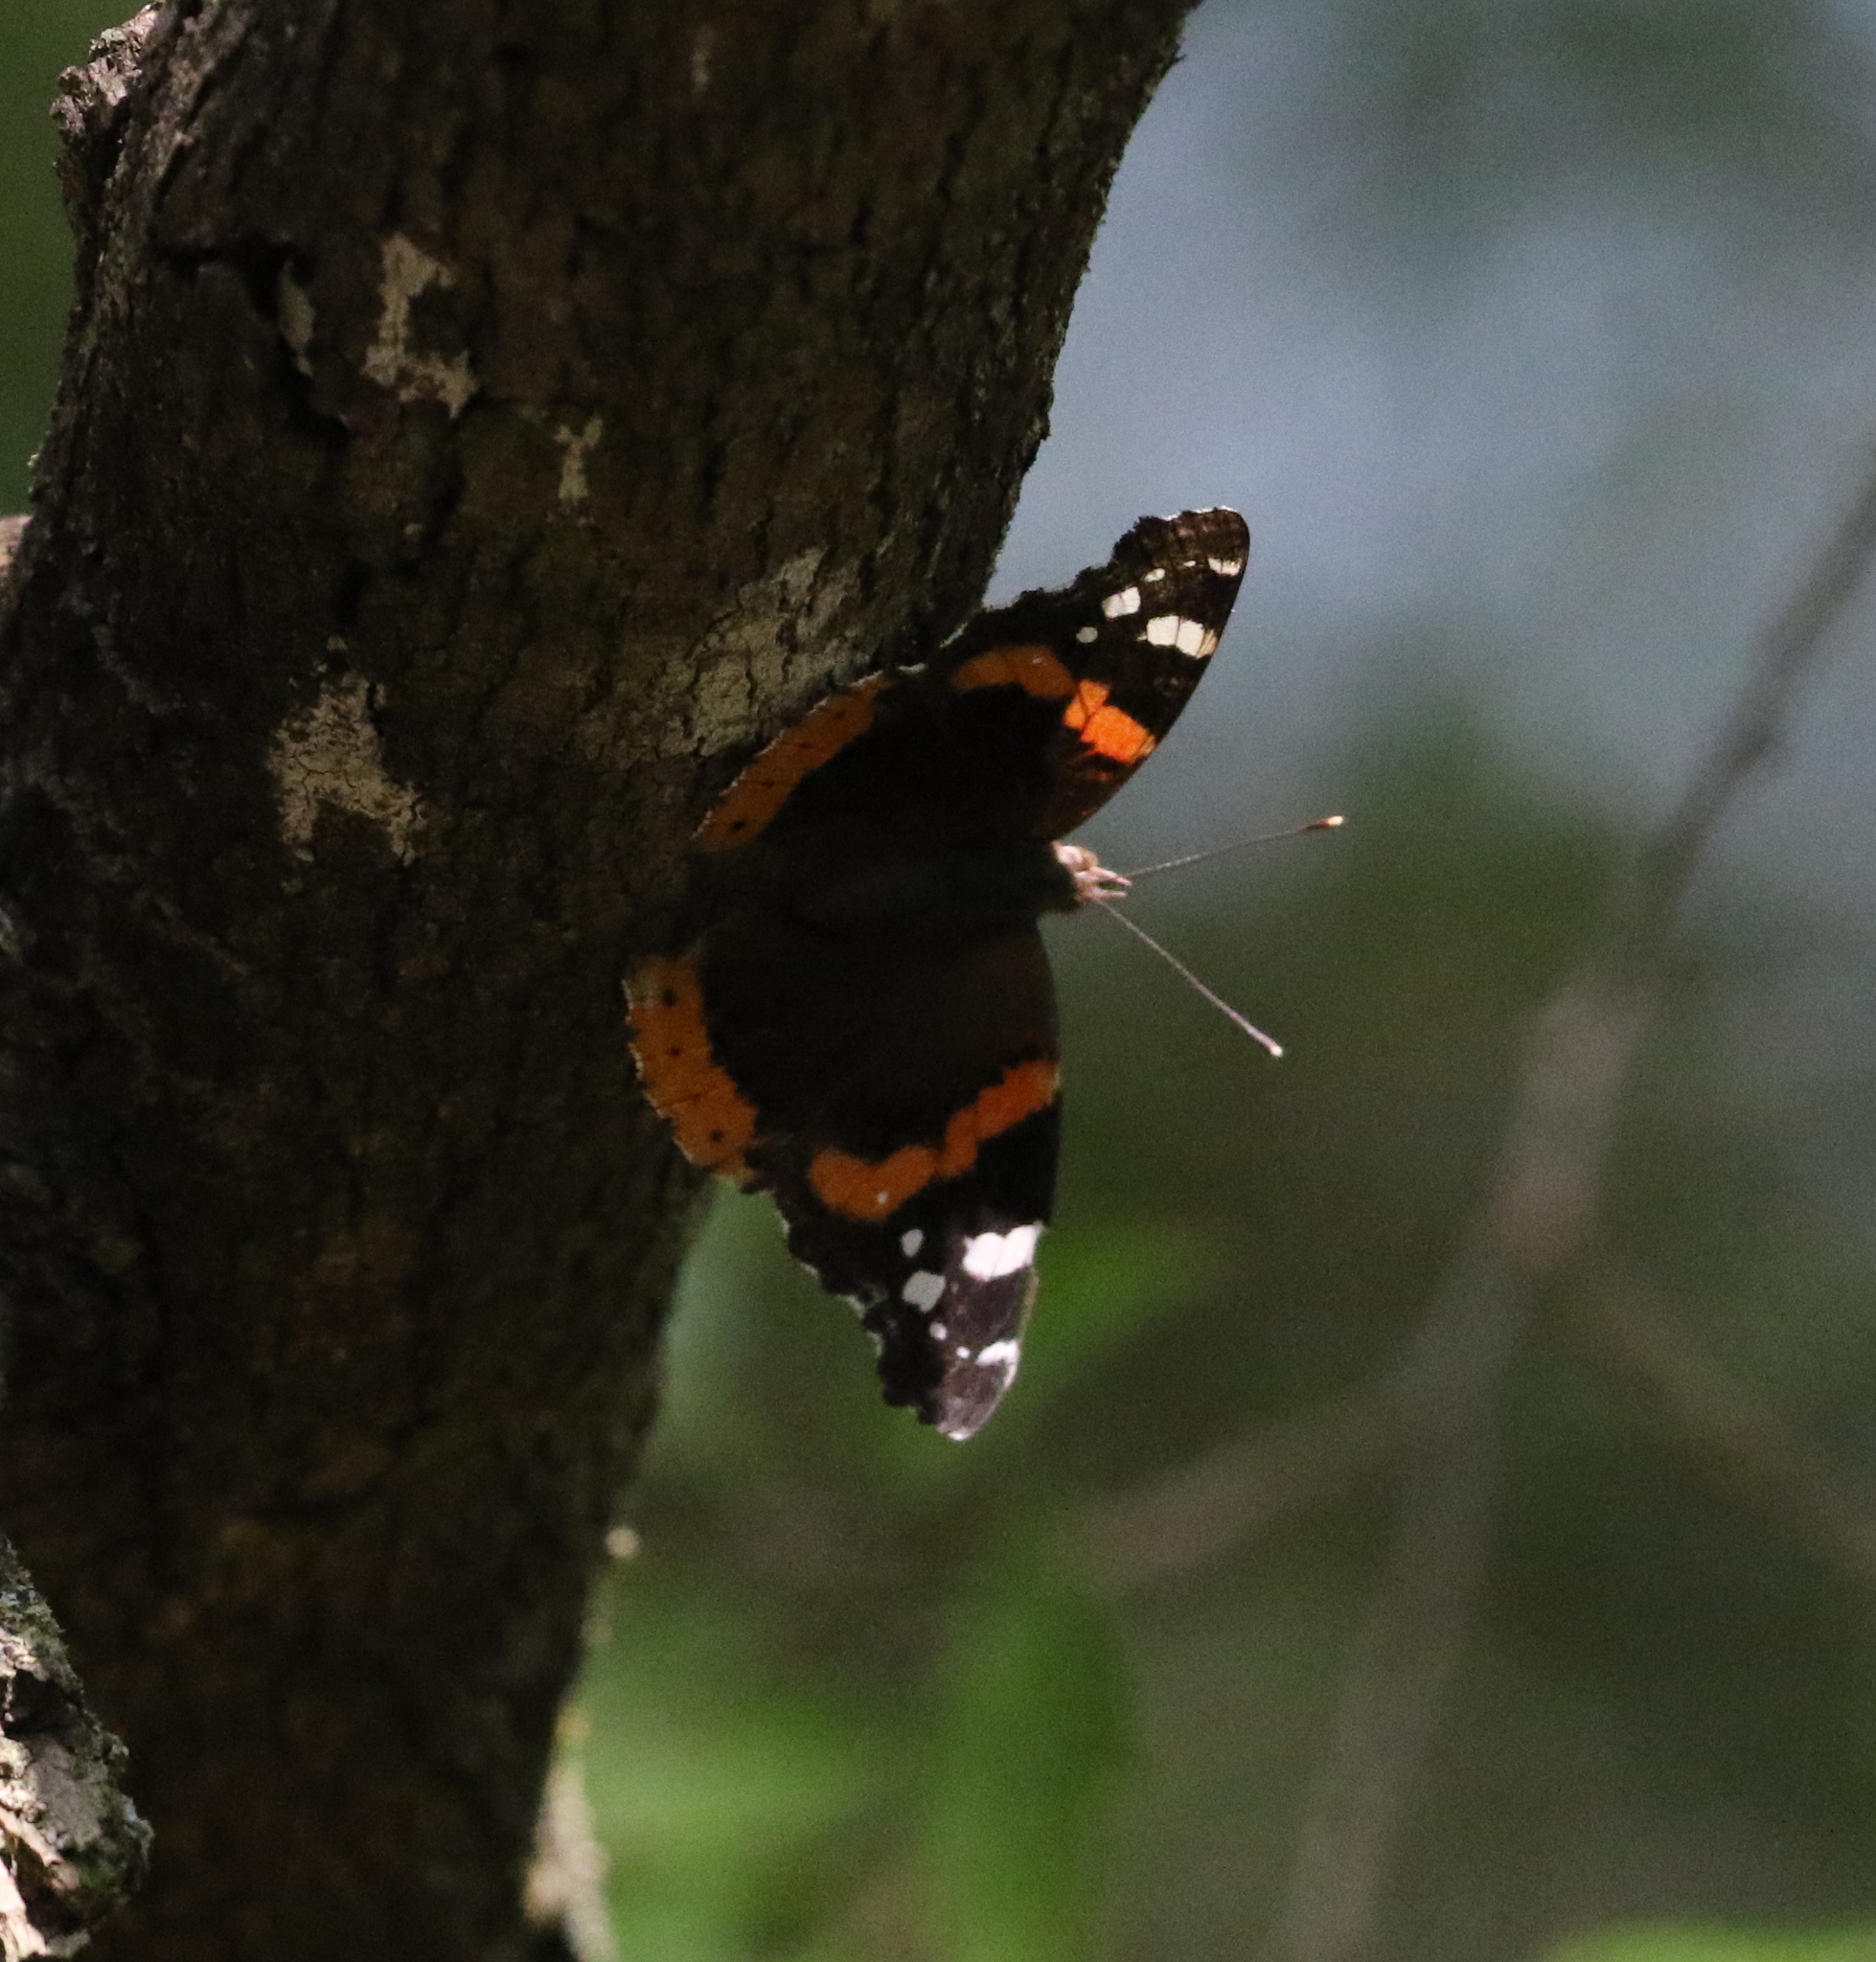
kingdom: Animalia
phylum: Arthropoda
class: Insecta
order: Lepidoptera
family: Nymphalidae
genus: Vanessa
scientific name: Vanessa atalanta
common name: Red admiral
